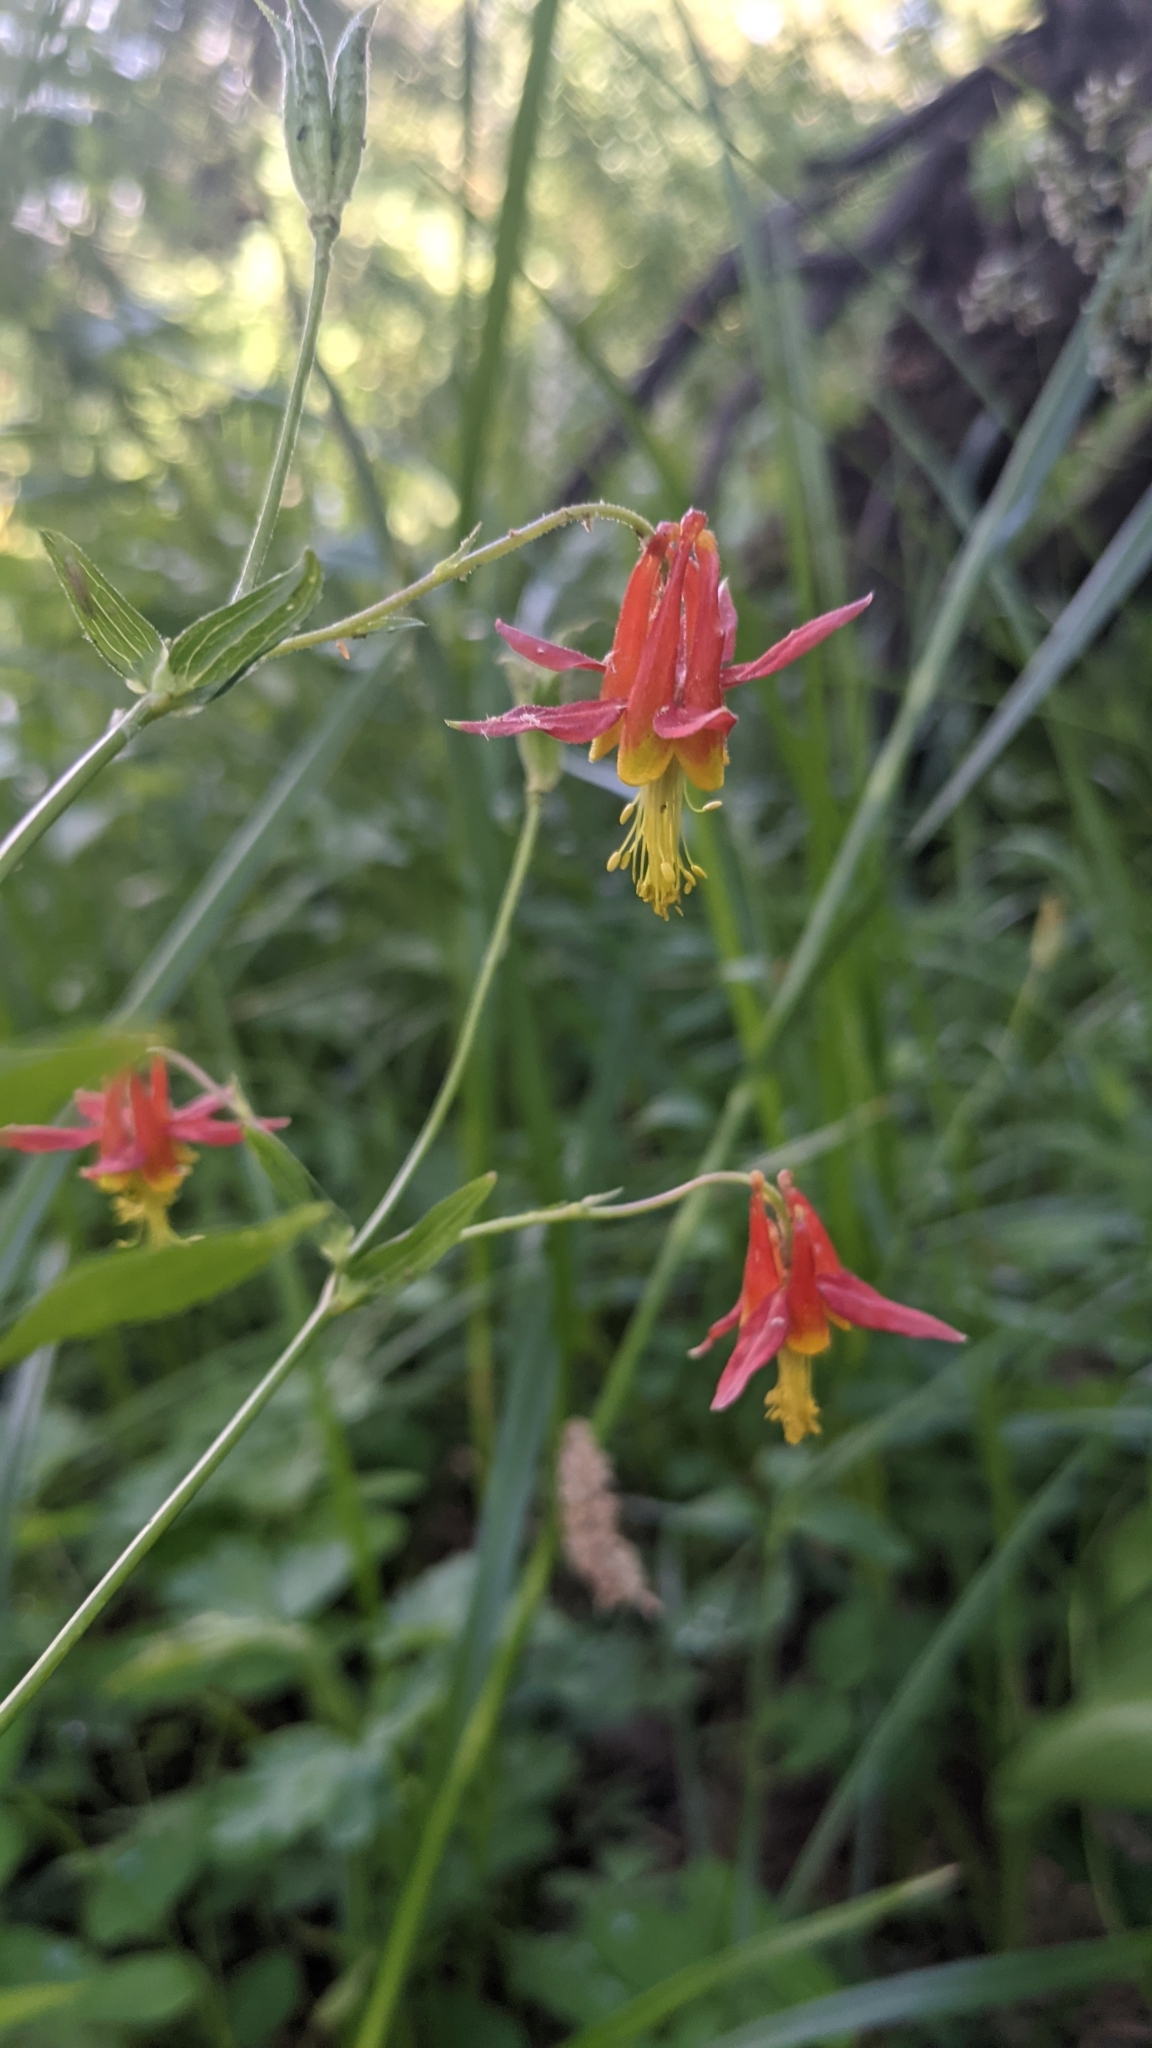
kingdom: Plantae
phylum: Tracheophyta
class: Magnoliopsida
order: Ranunculales
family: Ranunculaceae
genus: Aquilegia
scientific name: Aquilegia formosa
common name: Sitka columbine
